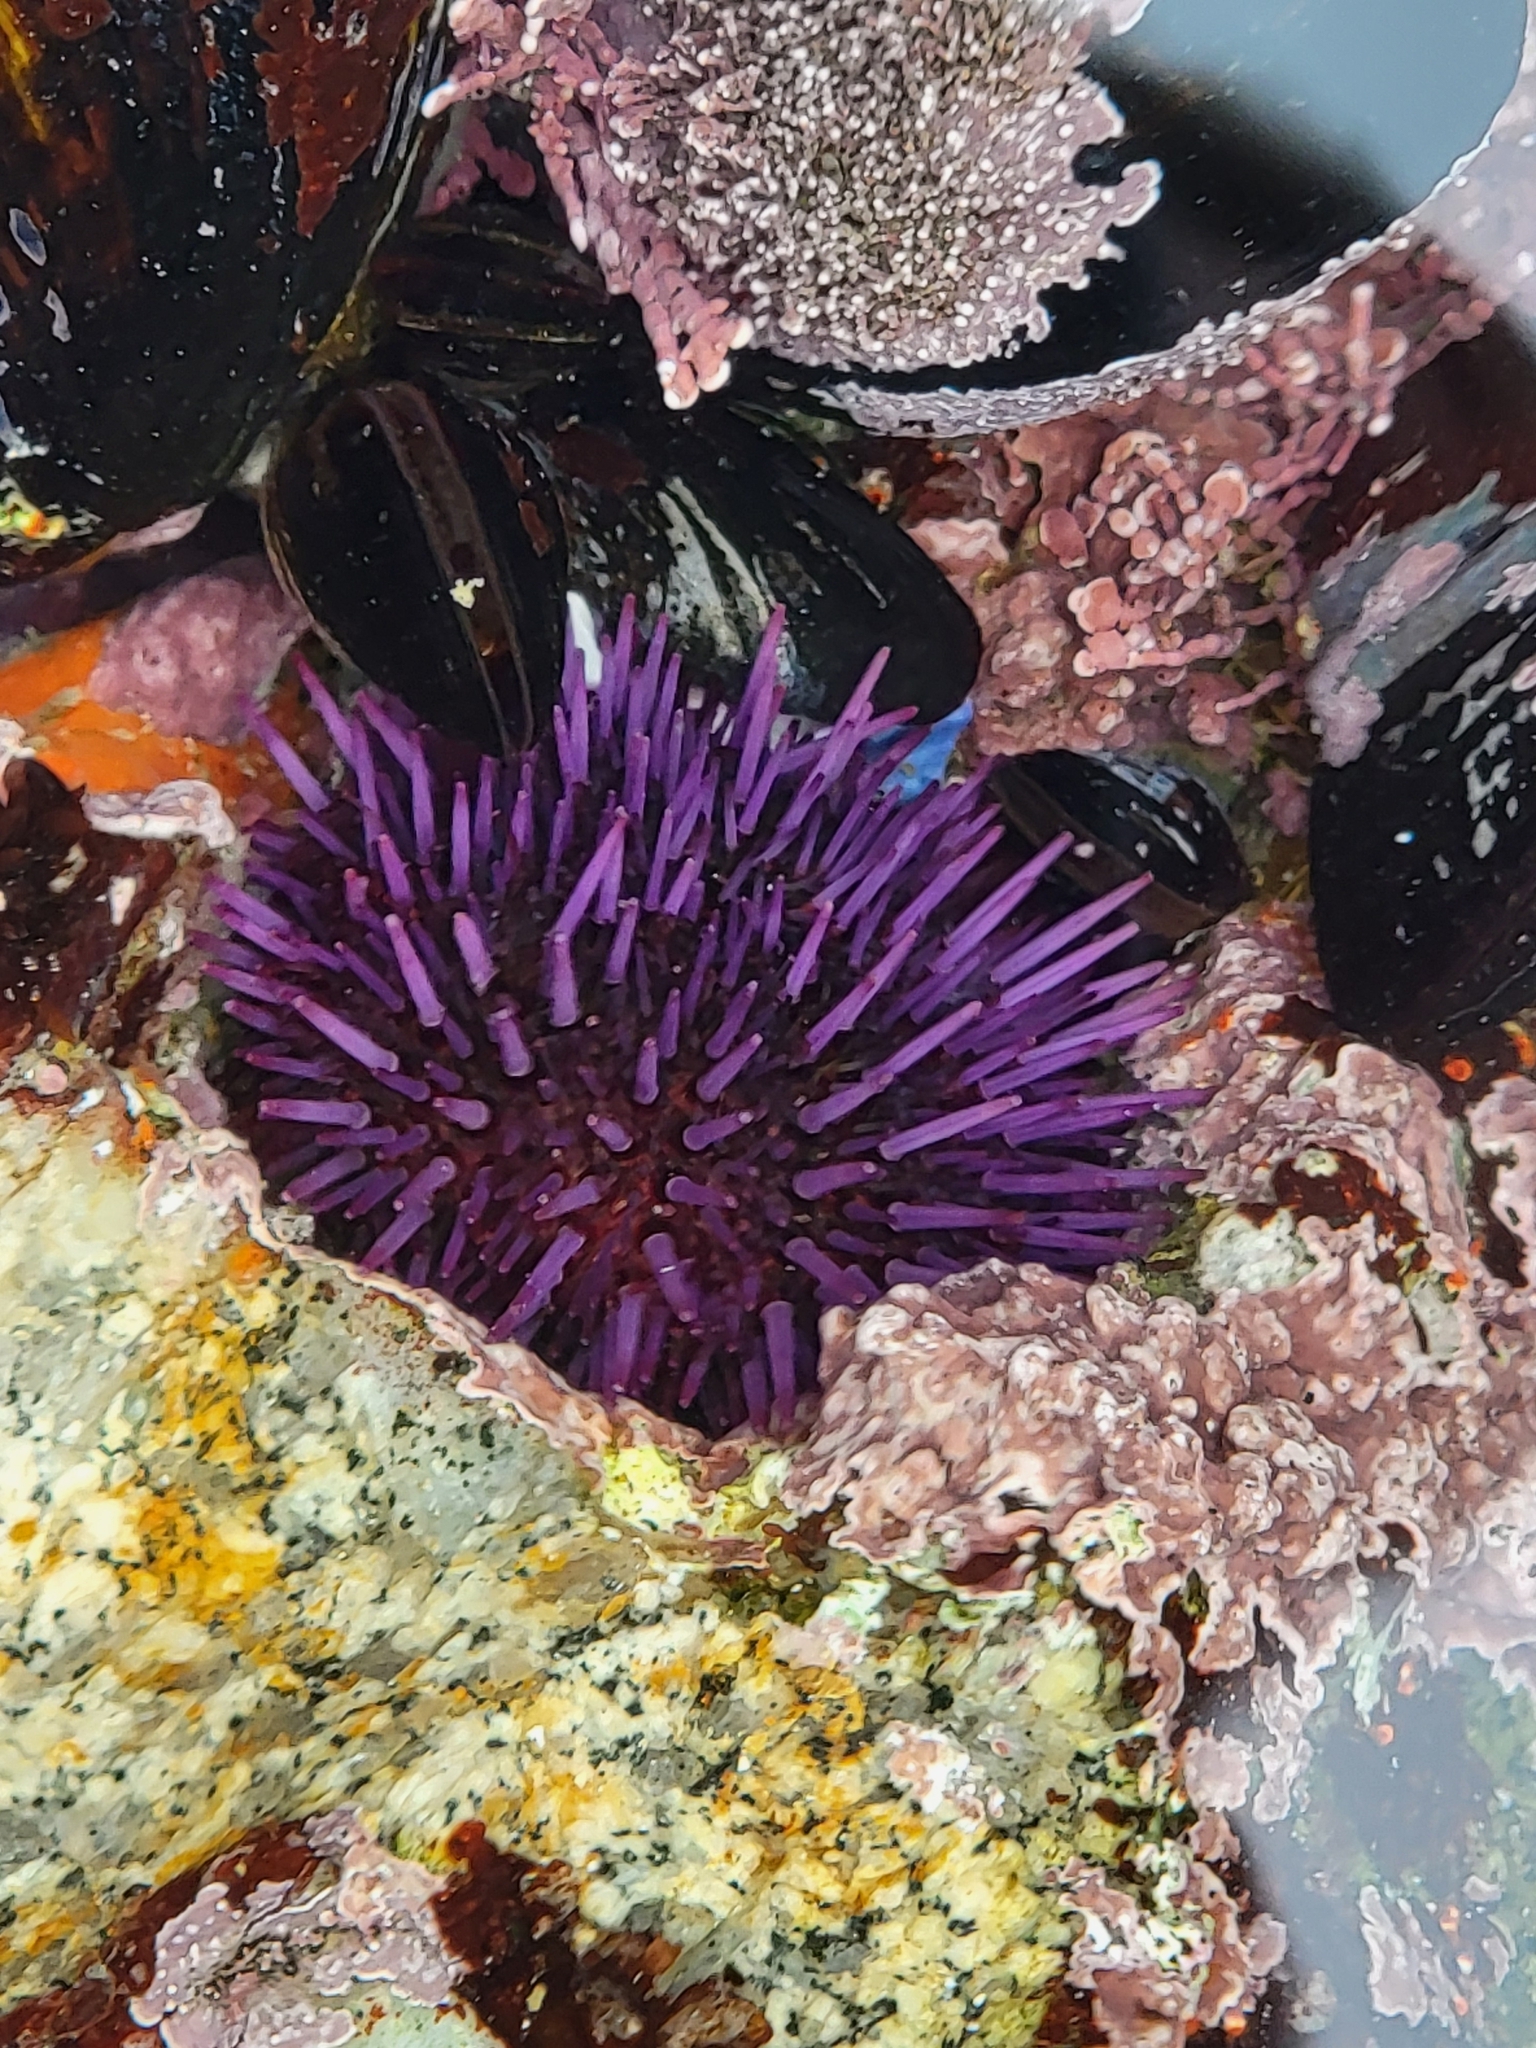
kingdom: Animalia
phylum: Echinodermata
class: Echinoidea
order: Camarodonta
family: Strongylocentrotidae
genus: Strongylocentrotus
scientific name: Strongylocentrotus purpuratus
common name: Purple sea urchin
